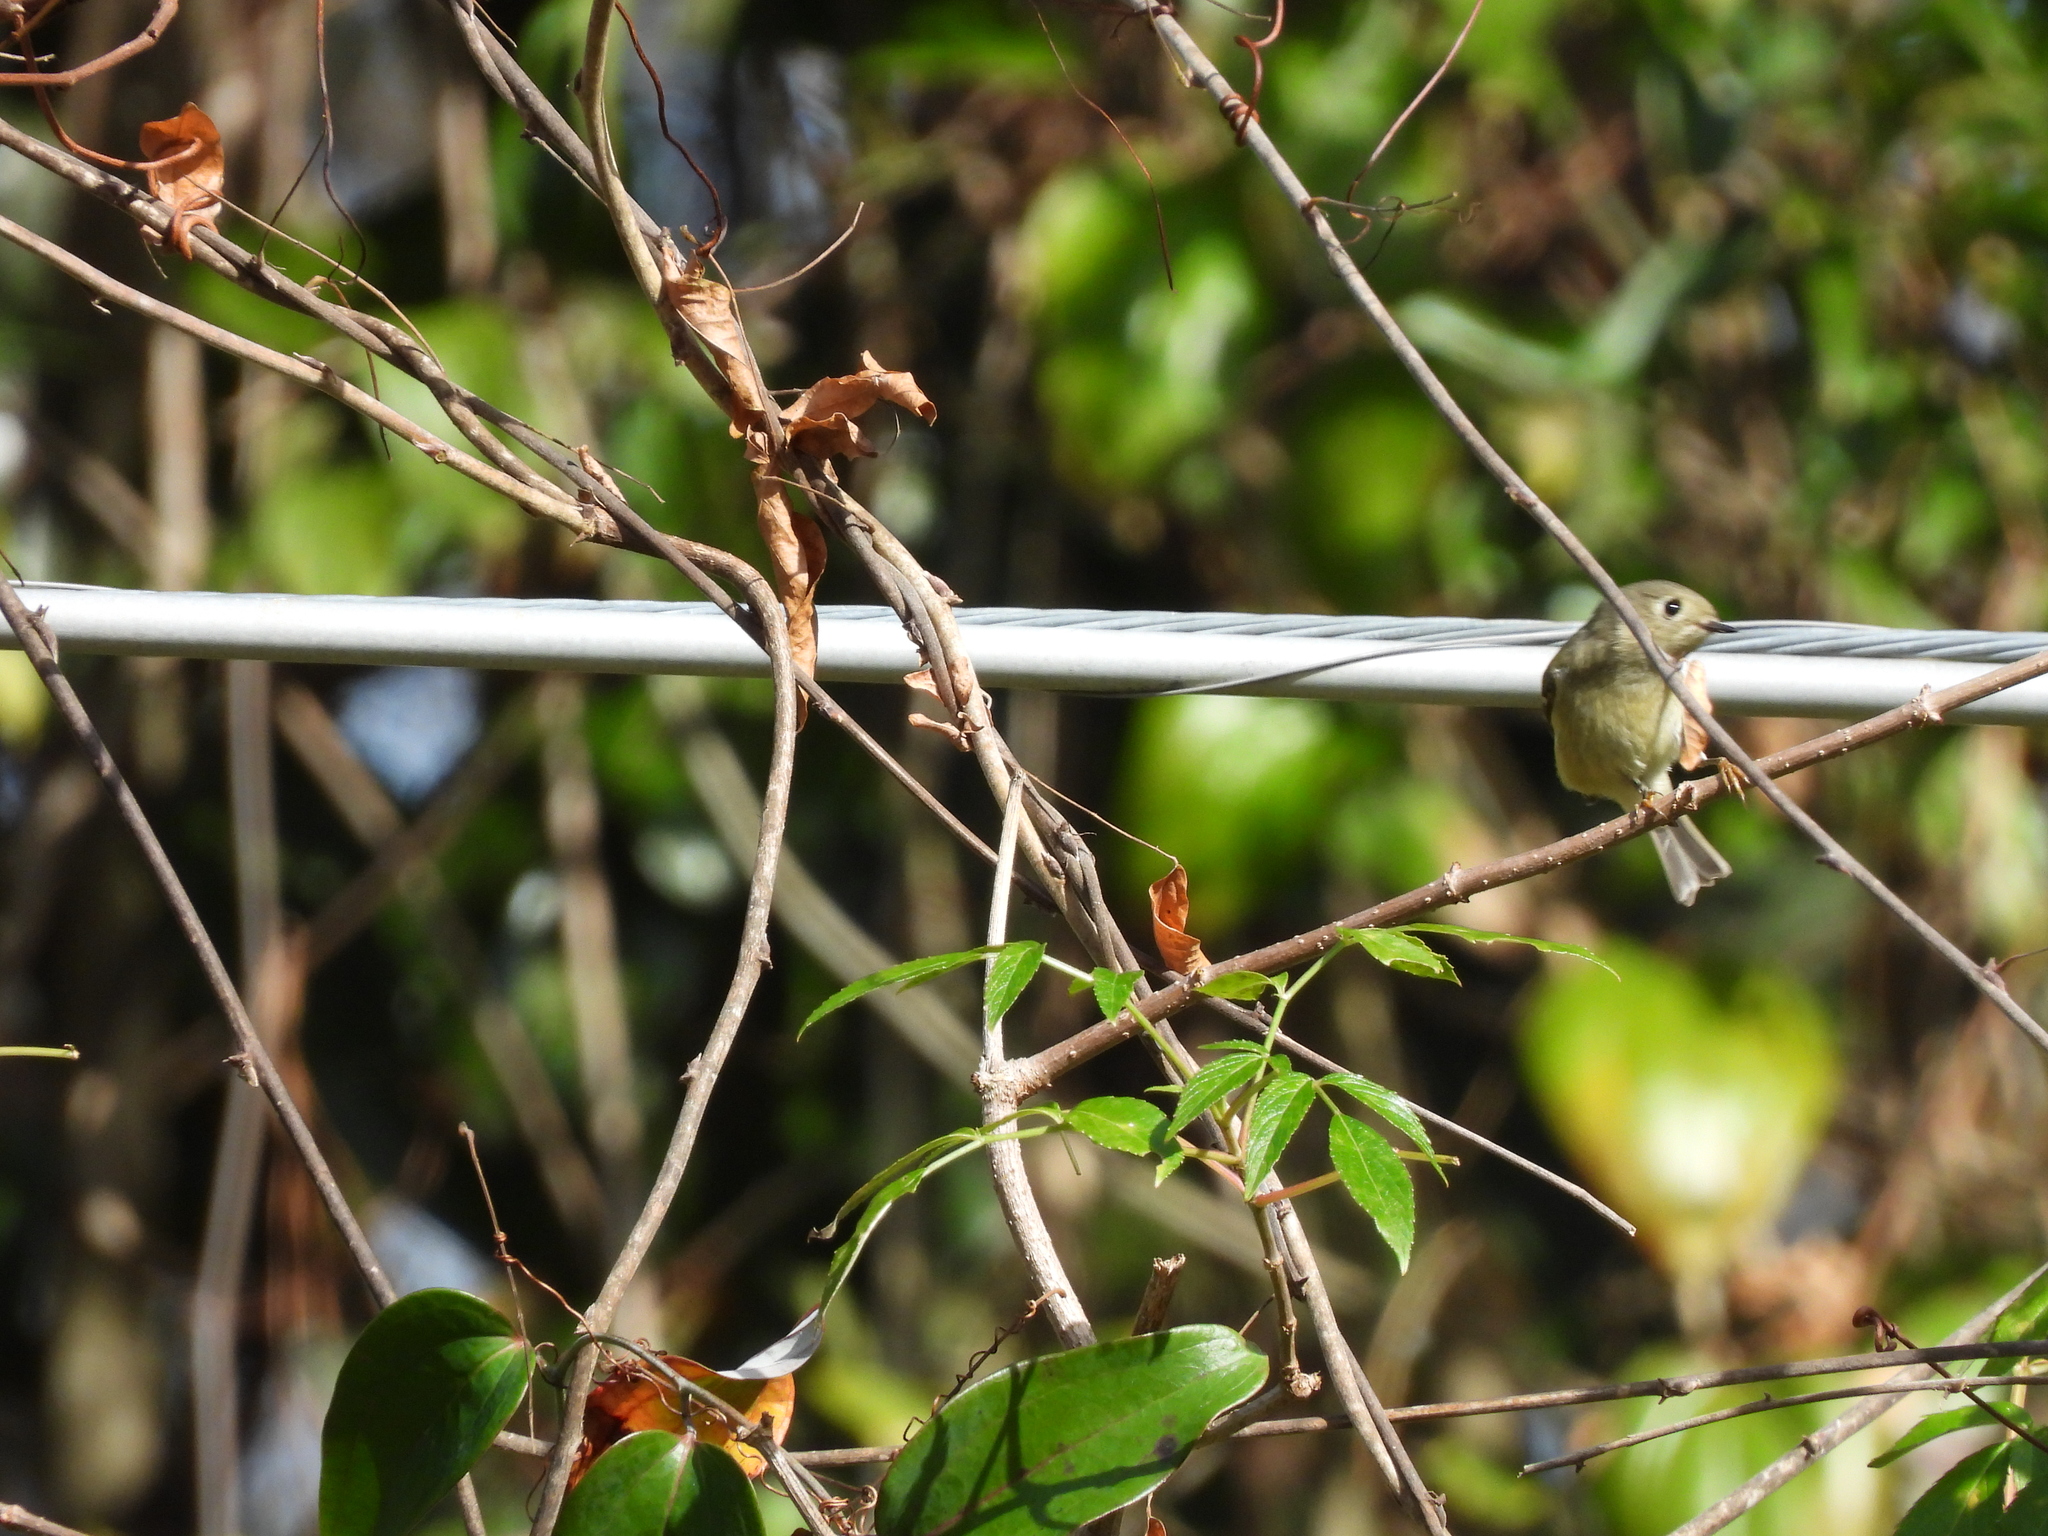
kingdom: Animalia
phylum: Chordata
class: Aves
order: Passeriformes
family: Regulidae
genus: Regulus
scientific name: Regulus calendula
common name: Ruby-crowned kinglet
